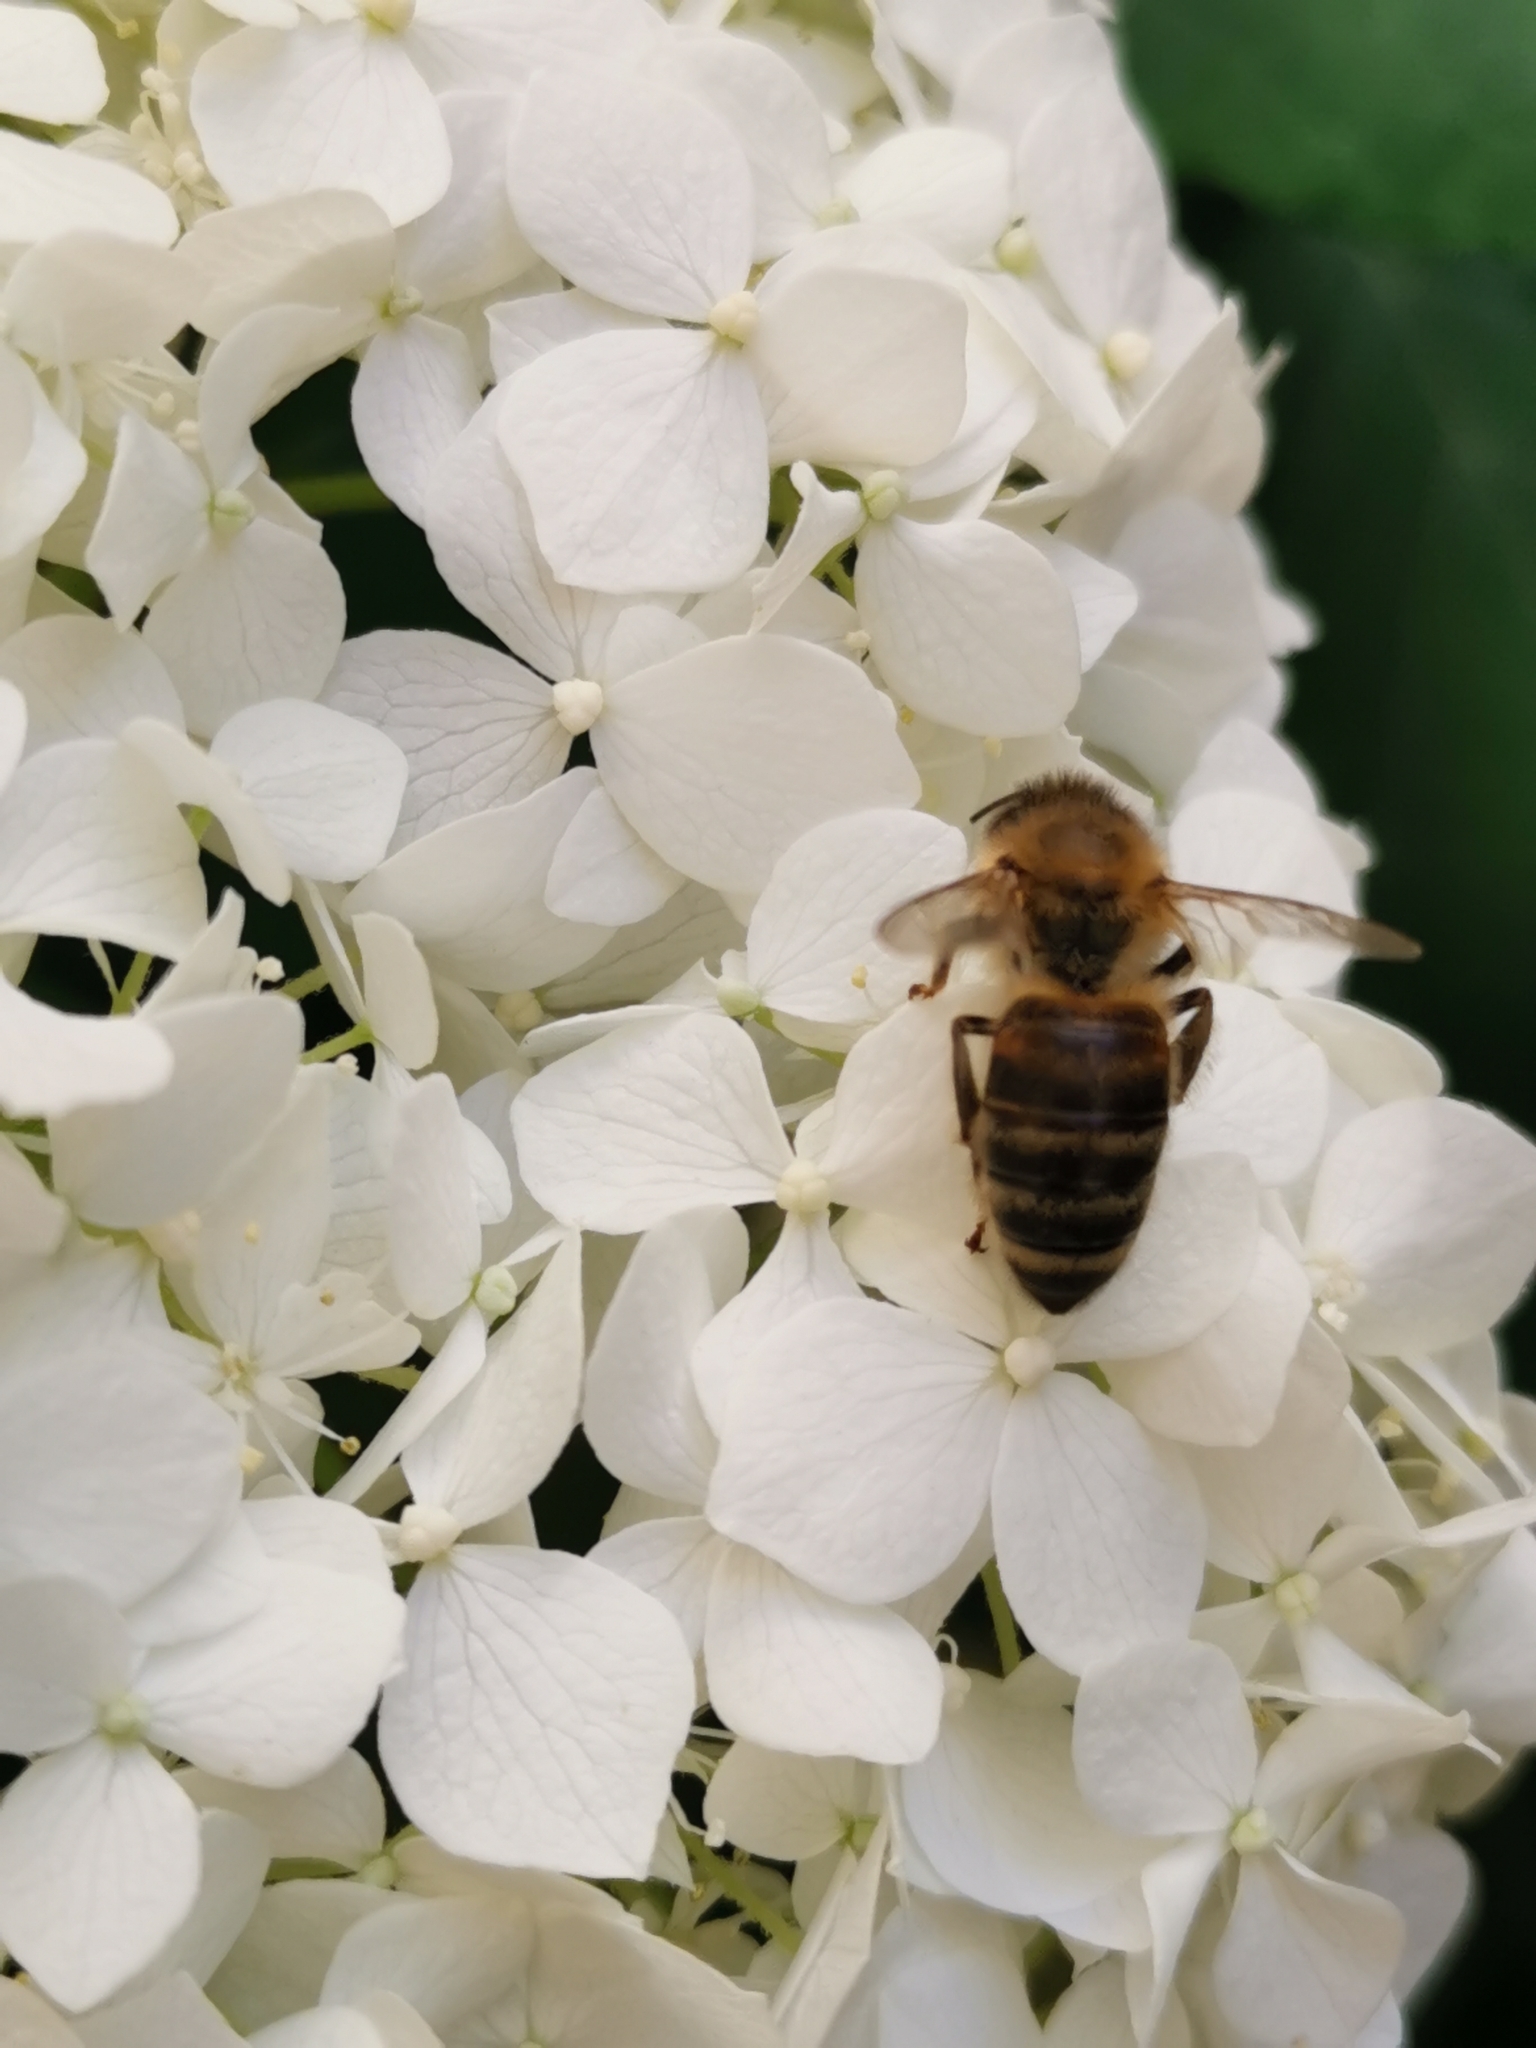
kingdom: Animalia
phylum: Arthropoda
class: Insecta
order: Hymenoptera
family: Apidae
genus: Apis
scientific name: Apis mellifera
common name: Honey bee
